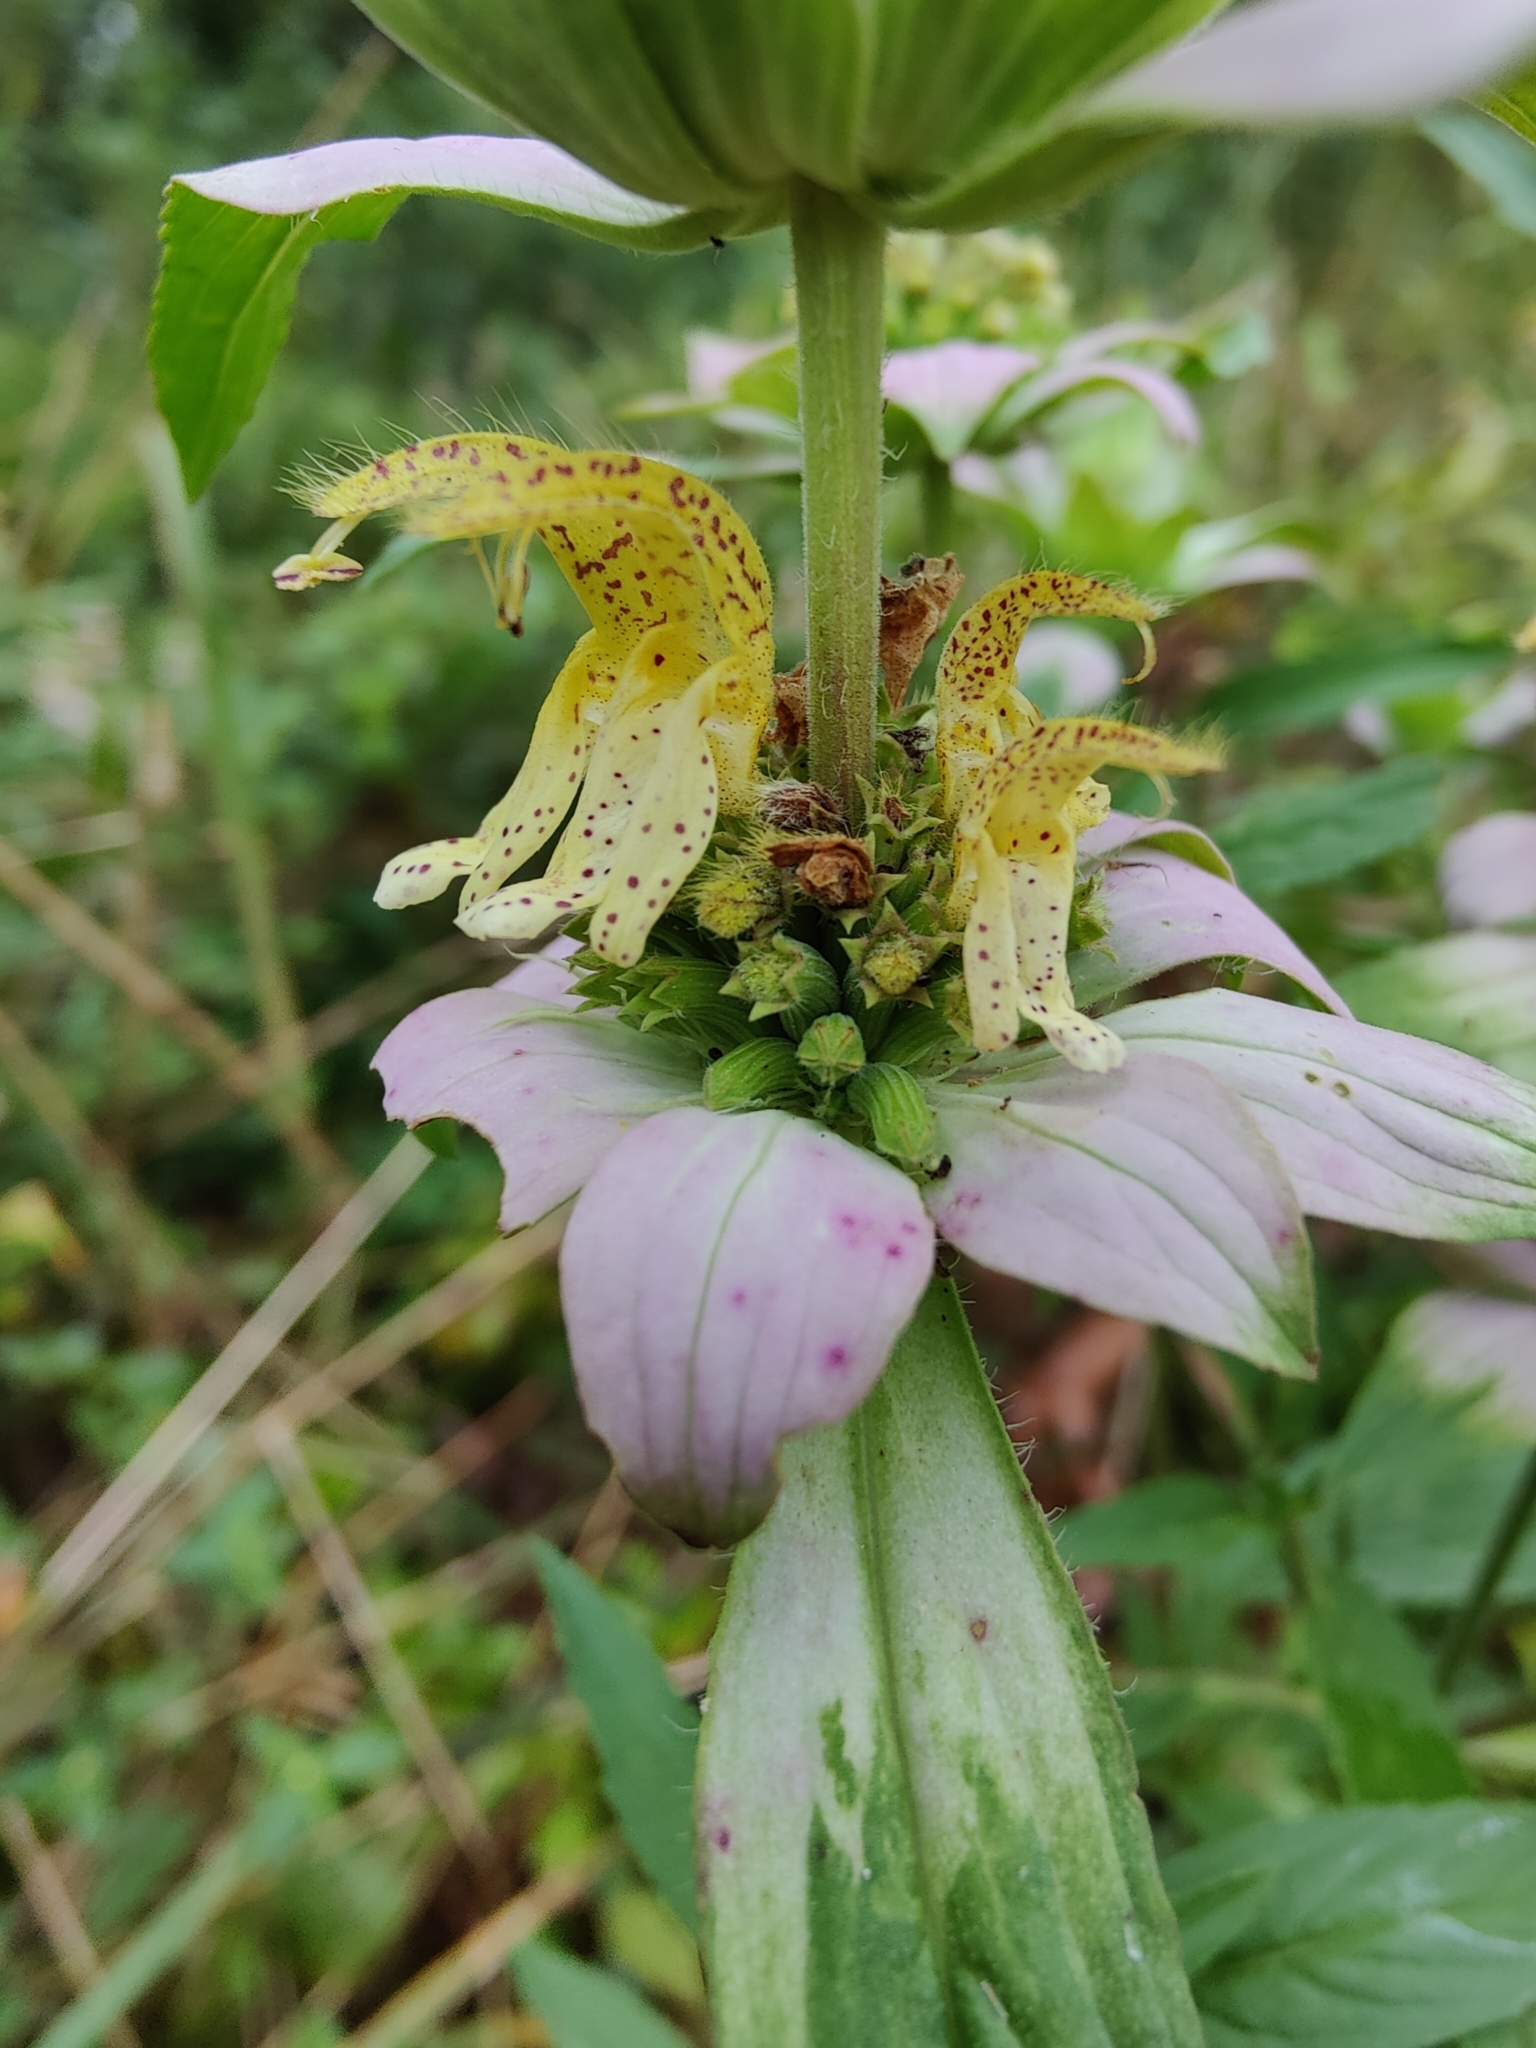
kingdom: Plantae
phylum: Tracheophyta
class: Magnoliopsida
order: Lamiales
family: Lamiaceae
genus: Monarda
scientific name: Monarda punctata
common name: Dotted monarda
